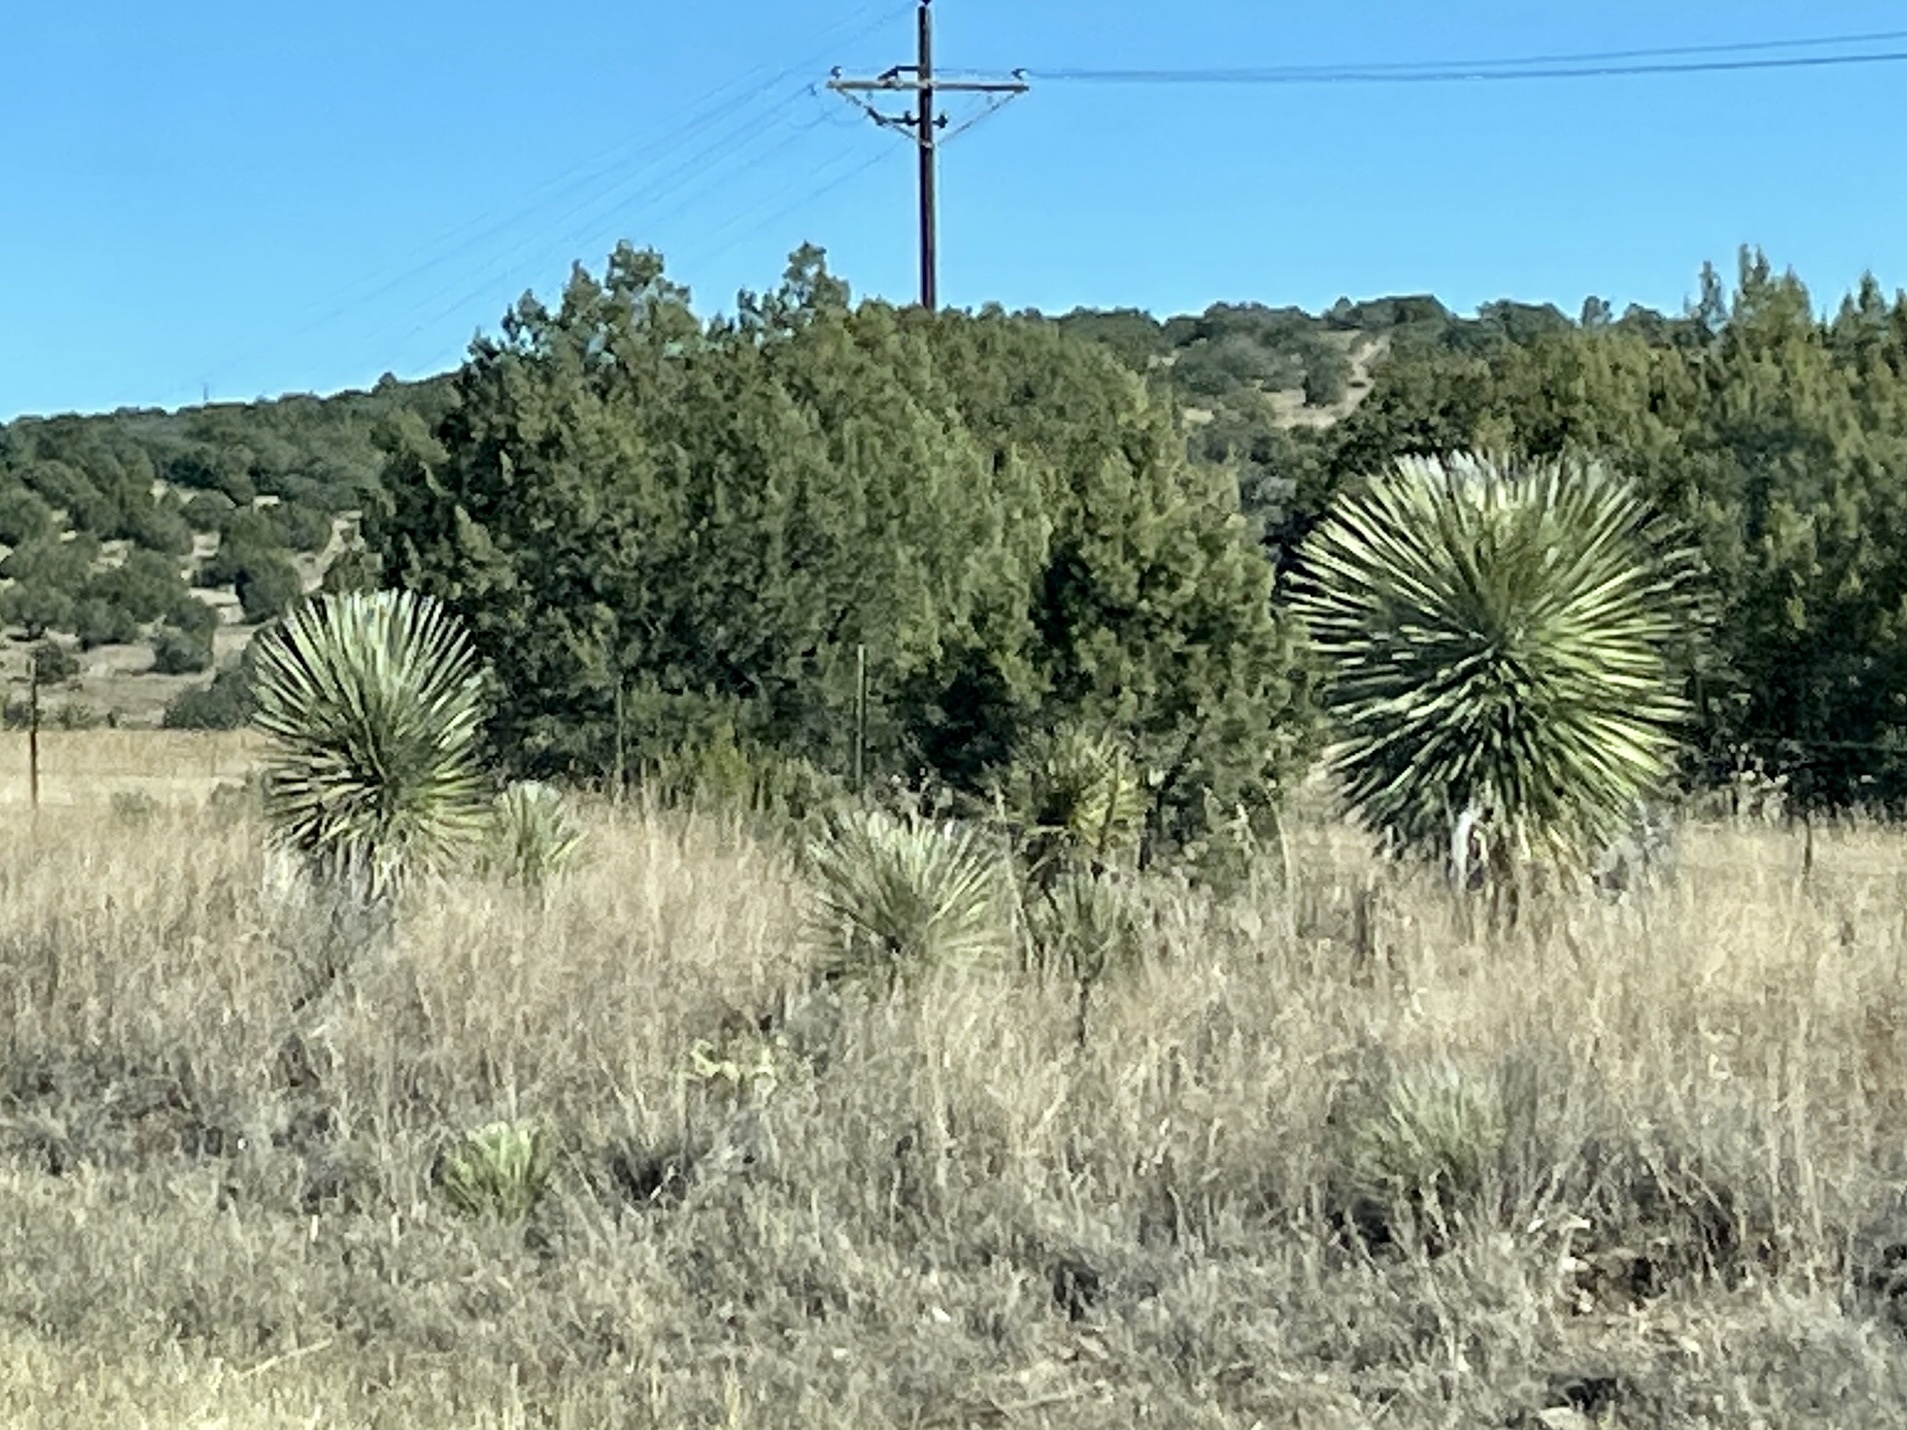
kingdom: Plantae
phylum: Tracheophyta
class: Liliopsida
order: Asparagales
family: Asparagaceae
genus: Yucca
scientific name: Yucca elata
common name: Palmella
